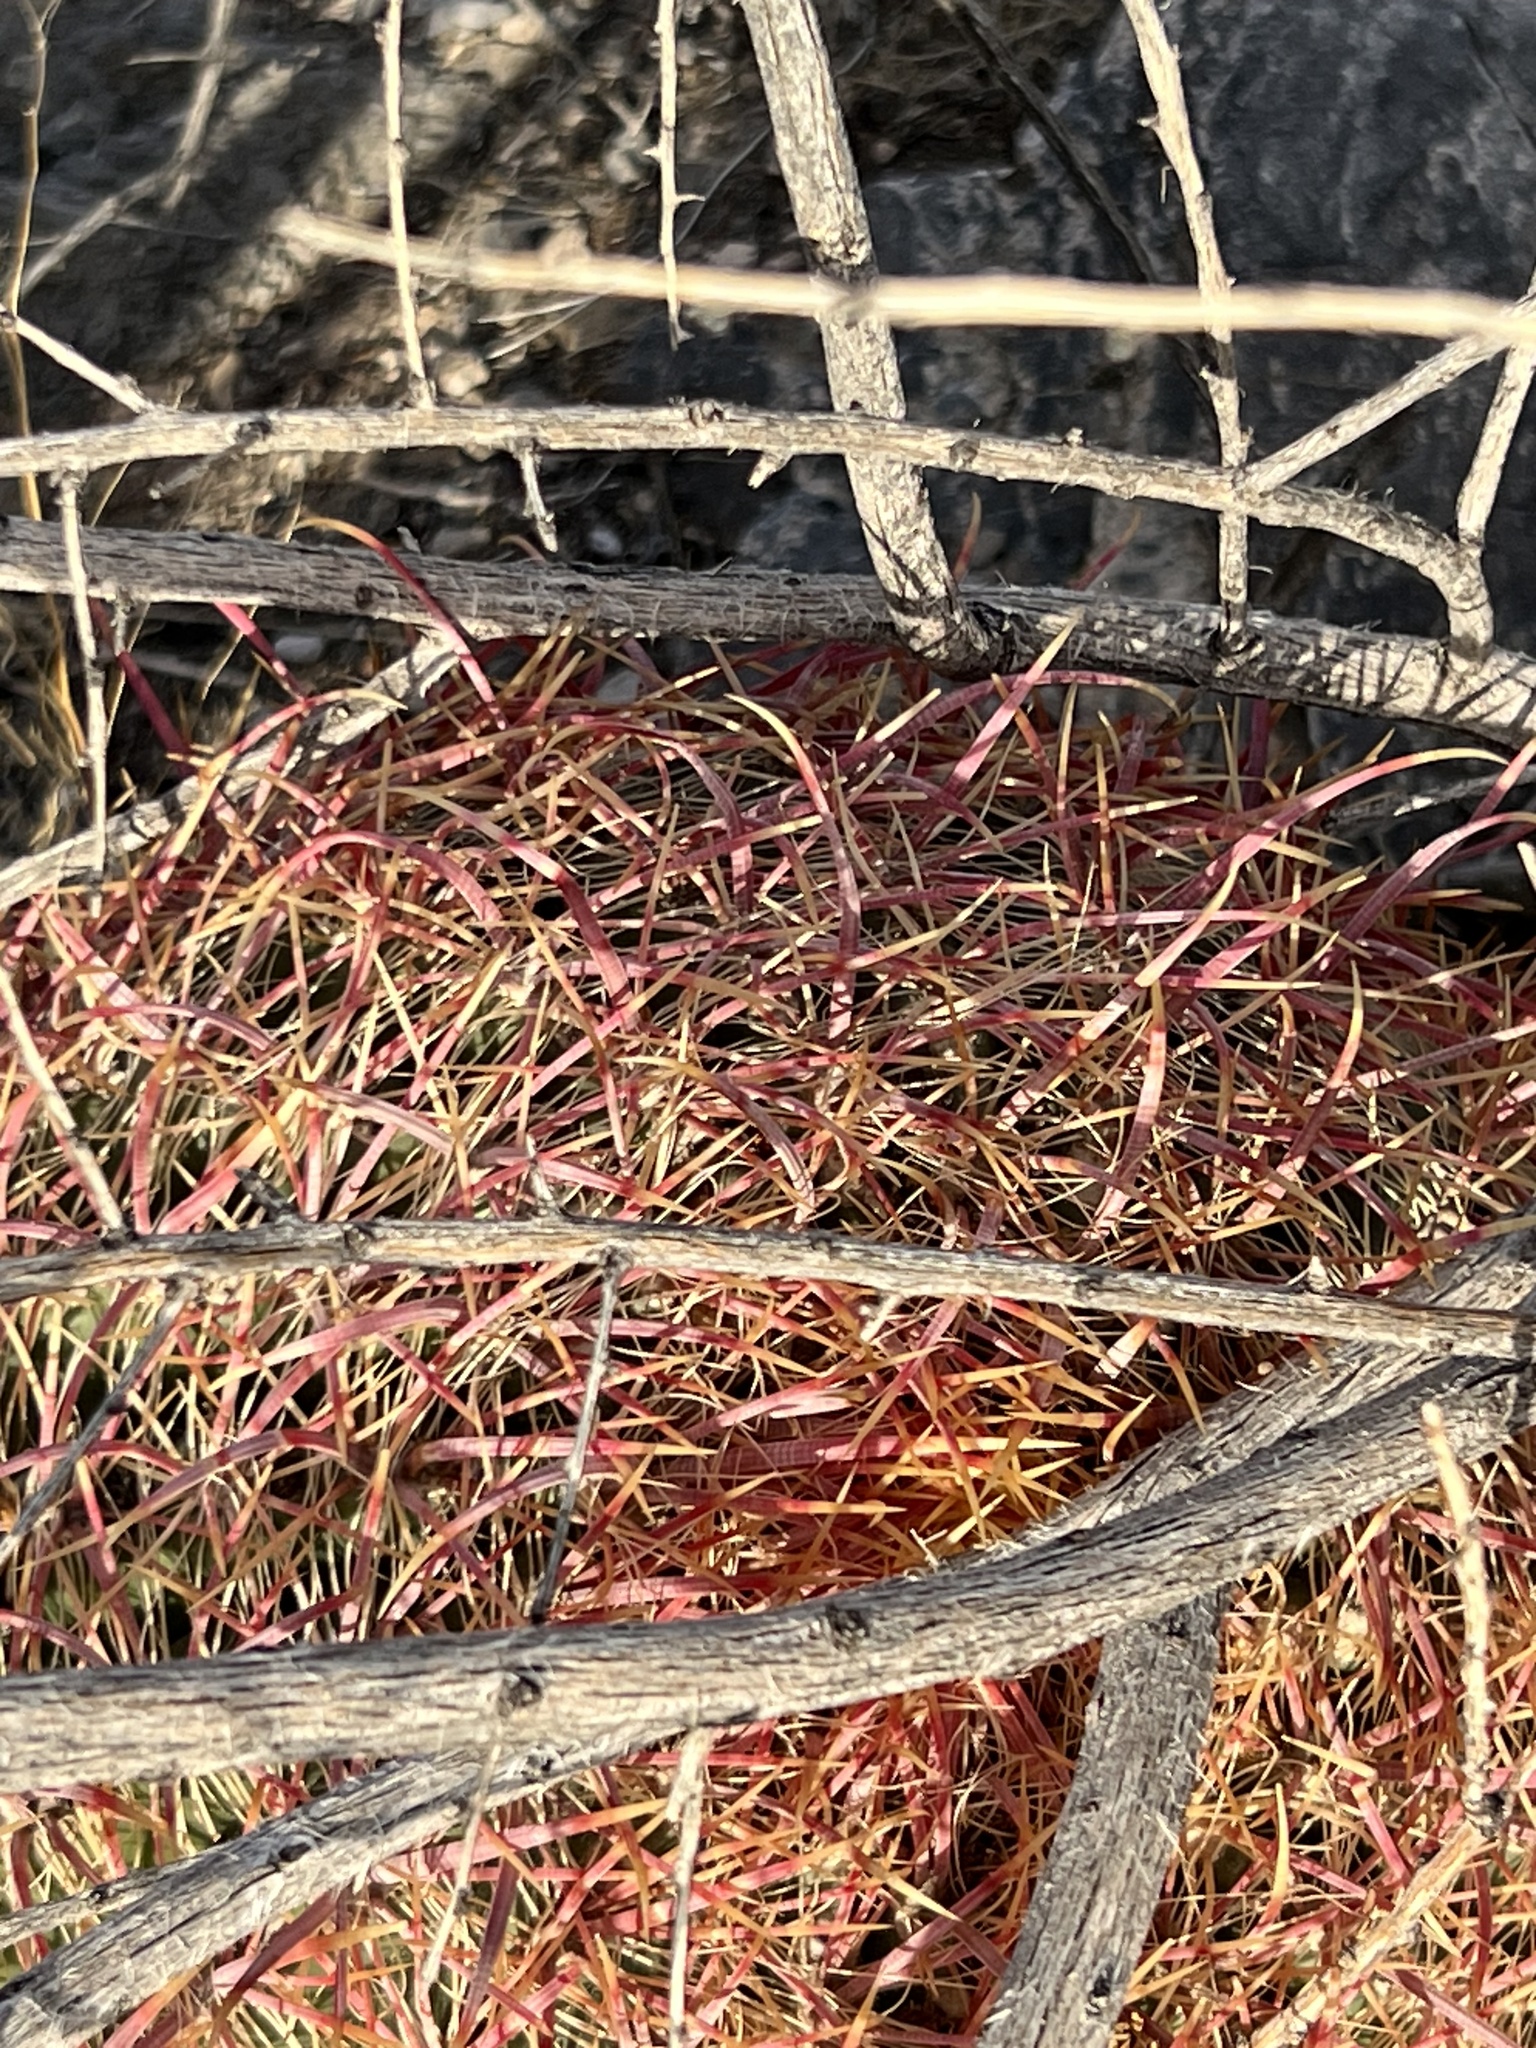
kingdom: Plantae
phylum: Tracheophyta
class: Magnoliopsida
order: Caryophyllales
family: Cactaceae
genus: Ferocactus
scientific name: Ferocactus cylindraceus
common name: California barrel cactus
